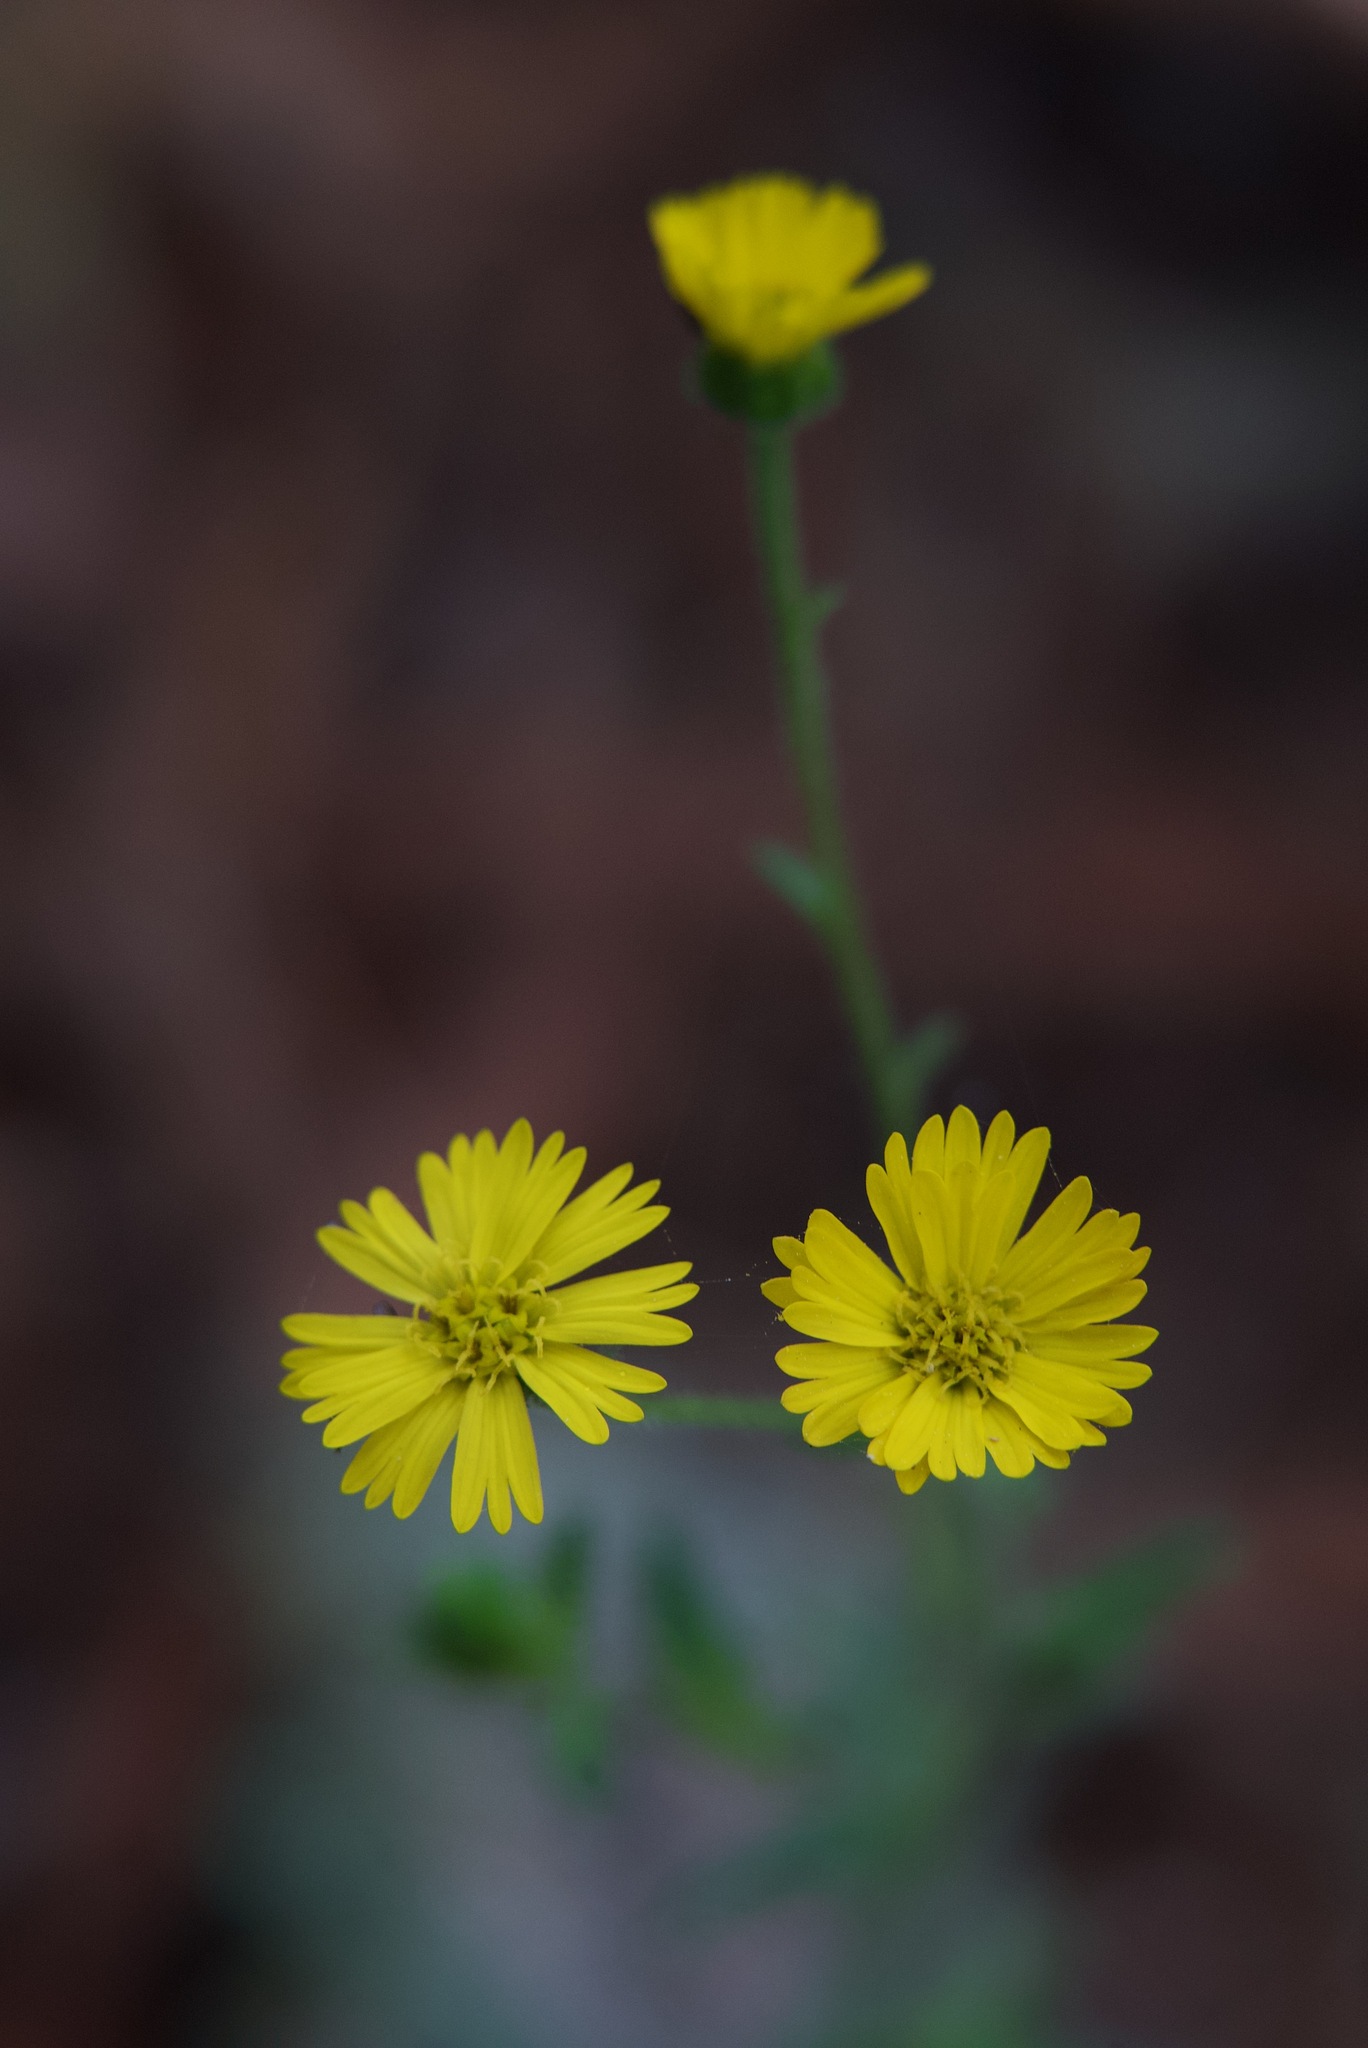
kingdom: Plantae
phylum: Tracheophyta
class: Magnoliopsida
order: Asterales
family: Asteraceae
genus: Anisocarpus
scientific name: Anisocarpus madioides
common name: Woodland madia
